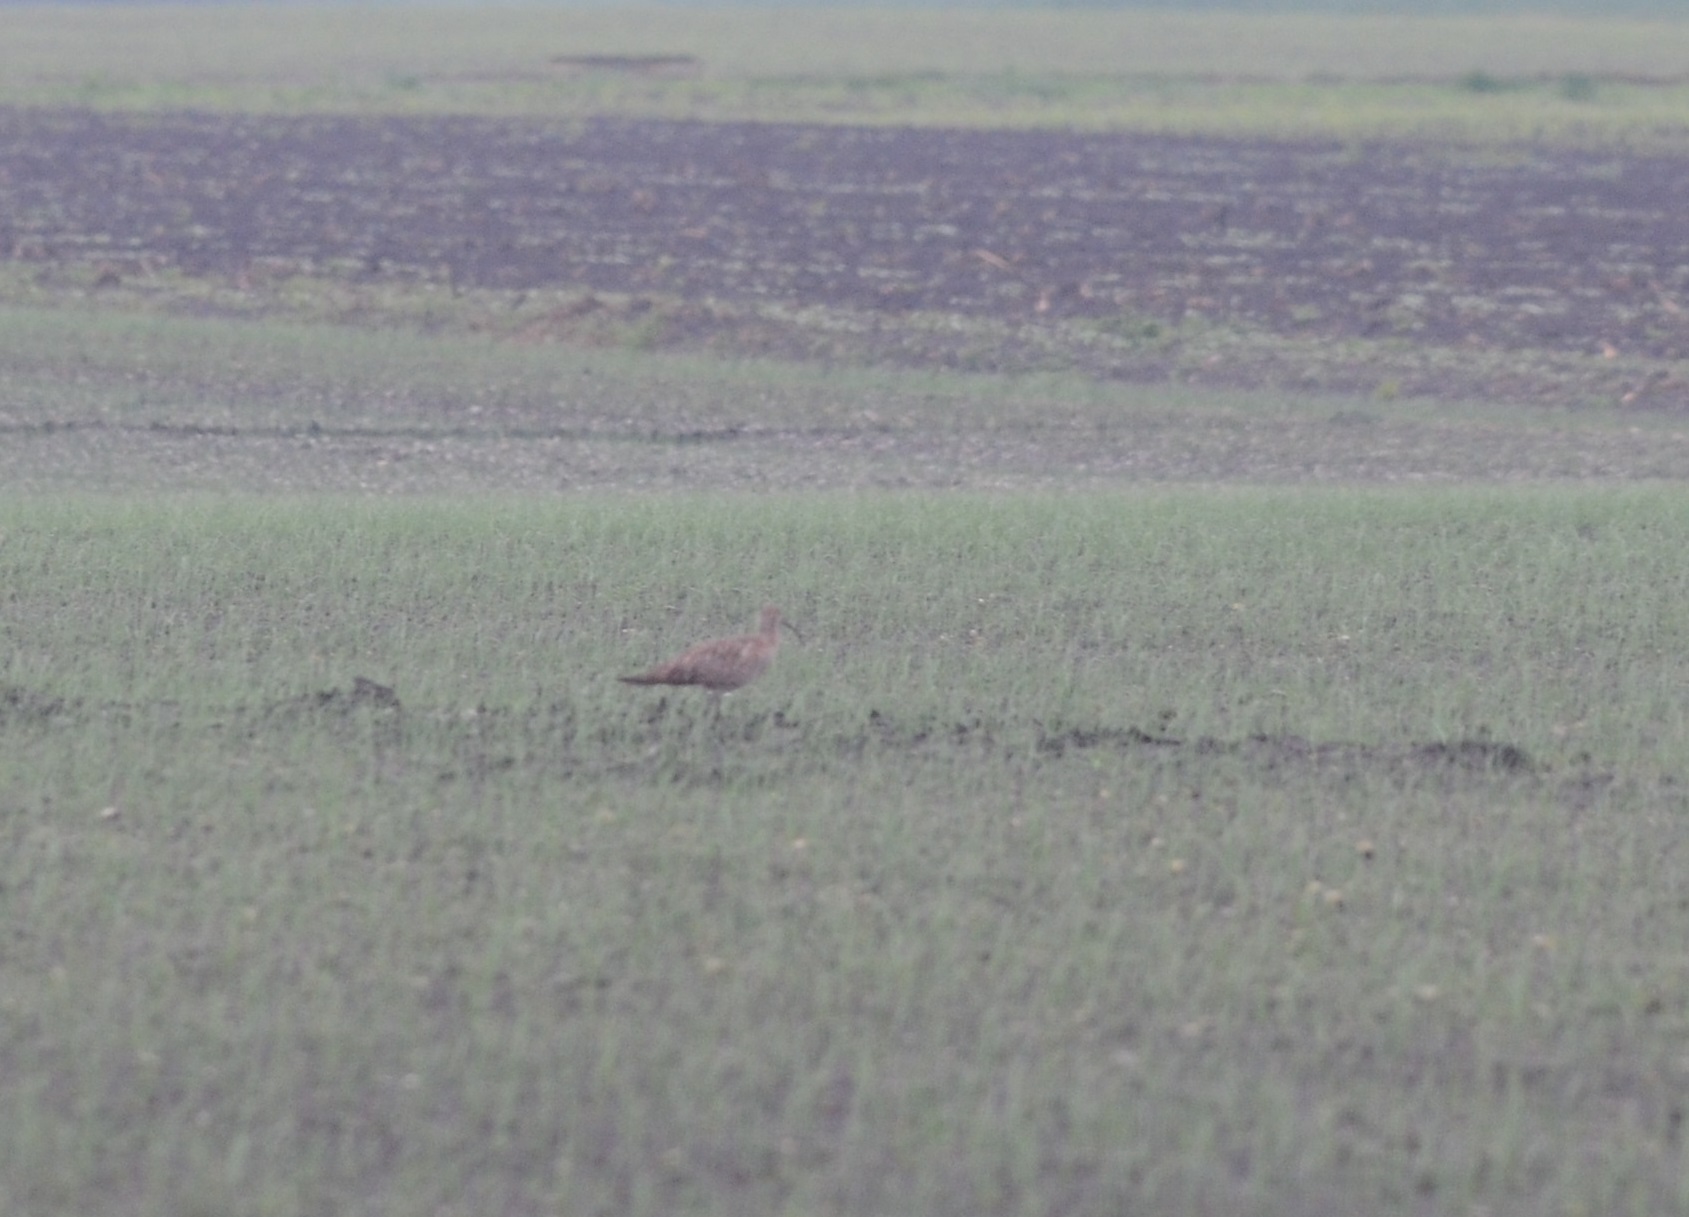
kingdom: Animalia
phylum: Chordata
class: Aves
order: Charadriiformes
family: Scolopacidae
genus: Numenius
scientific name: Numenius arquata
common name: Eurasian curlew
